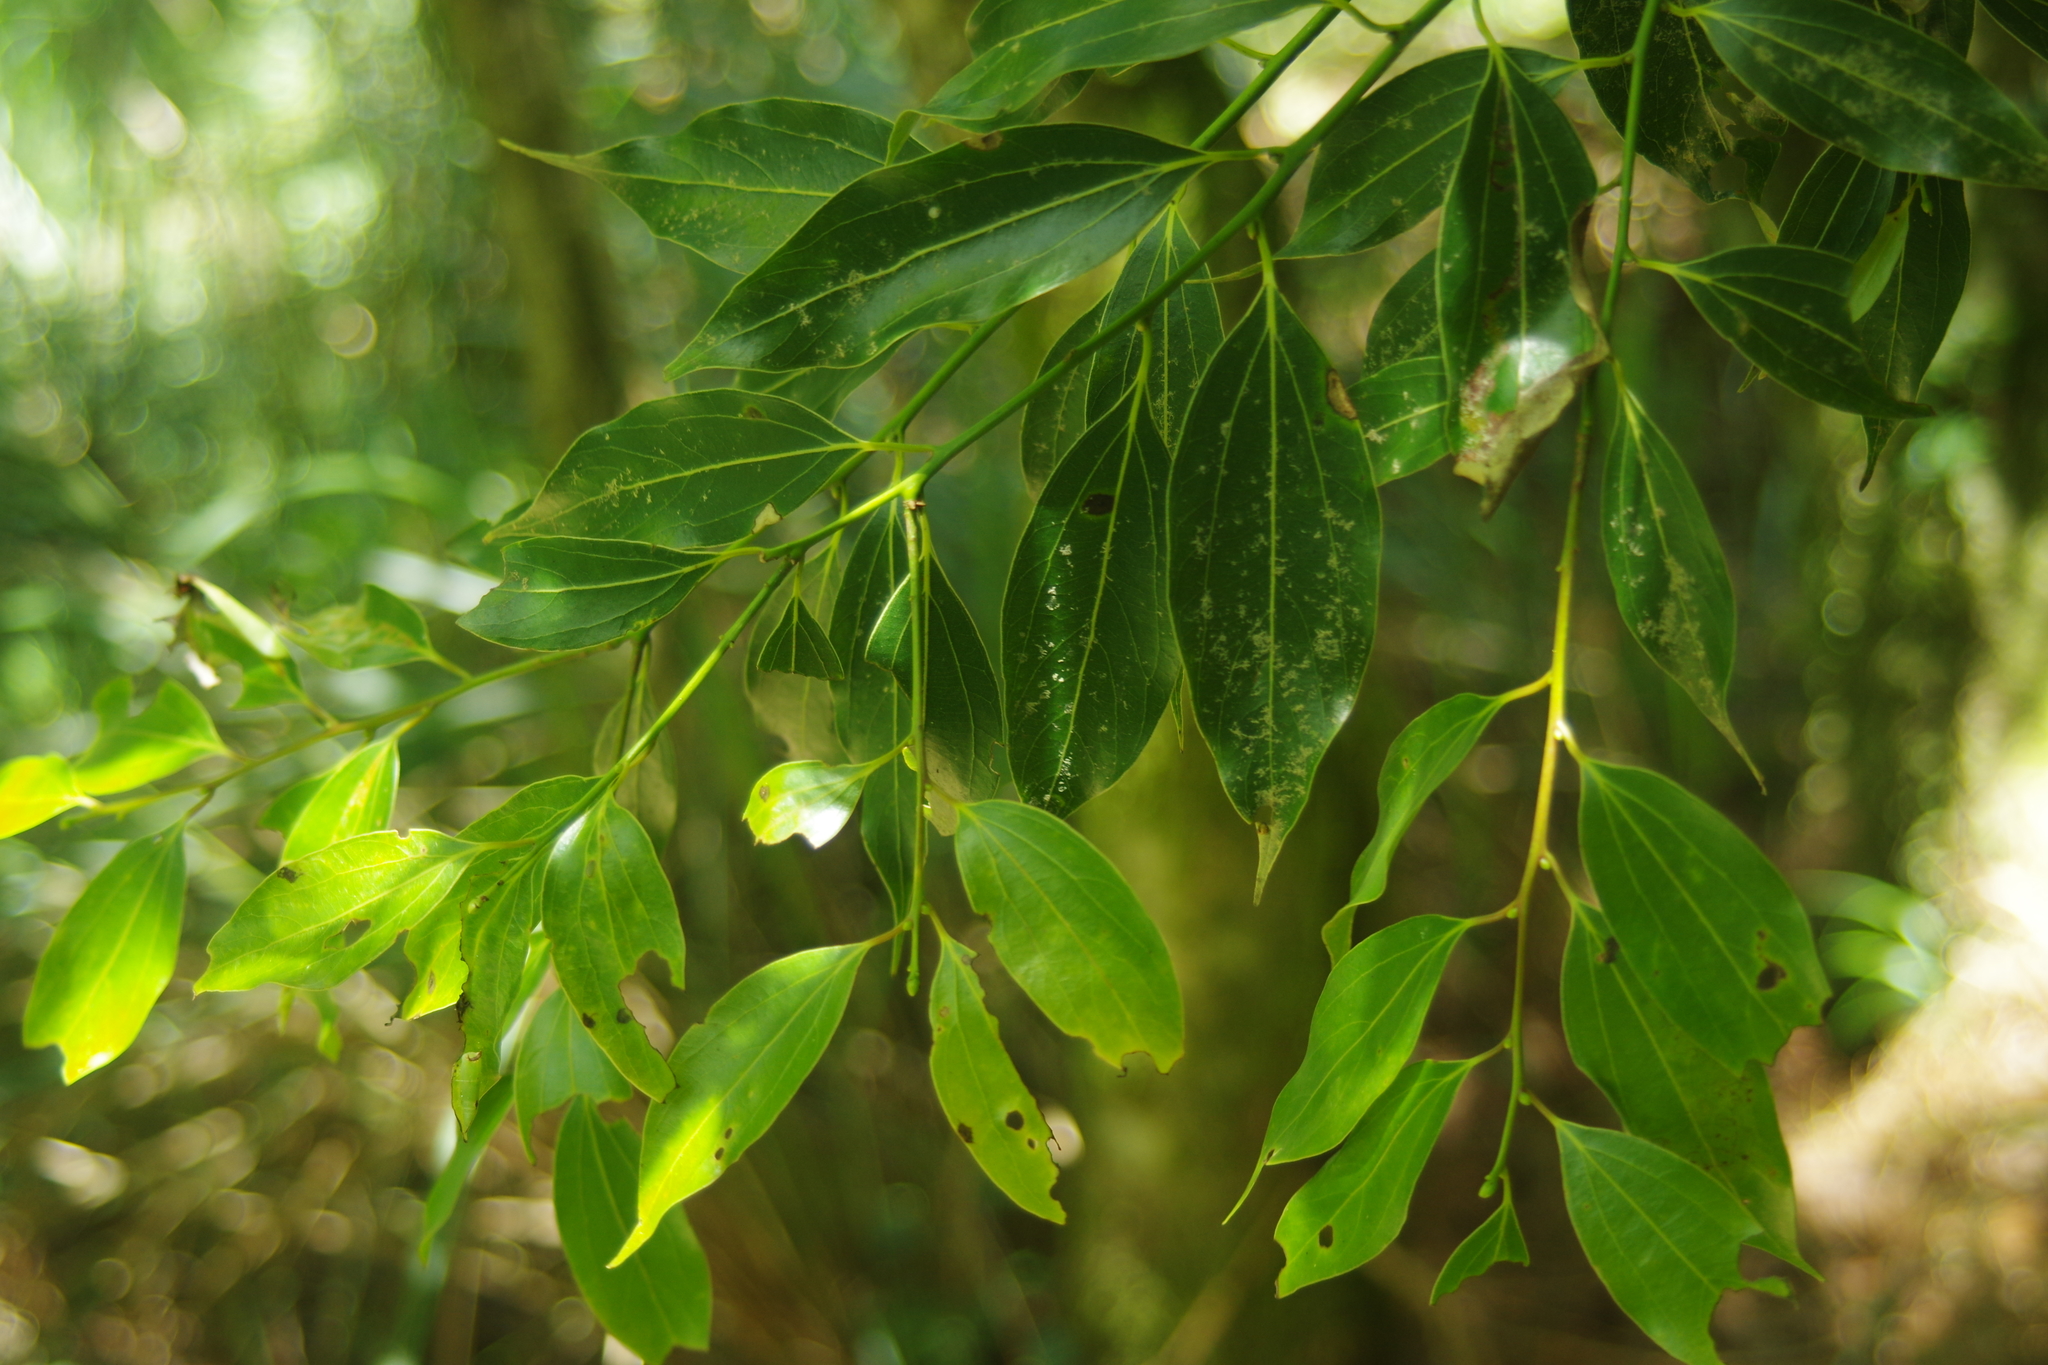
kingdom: Plantae
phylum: Tracheophyta
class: Magnoliopsida
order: Laurales
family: Lauraceae
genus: Cinnamomum
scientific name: Cinnamomum chekiangense
